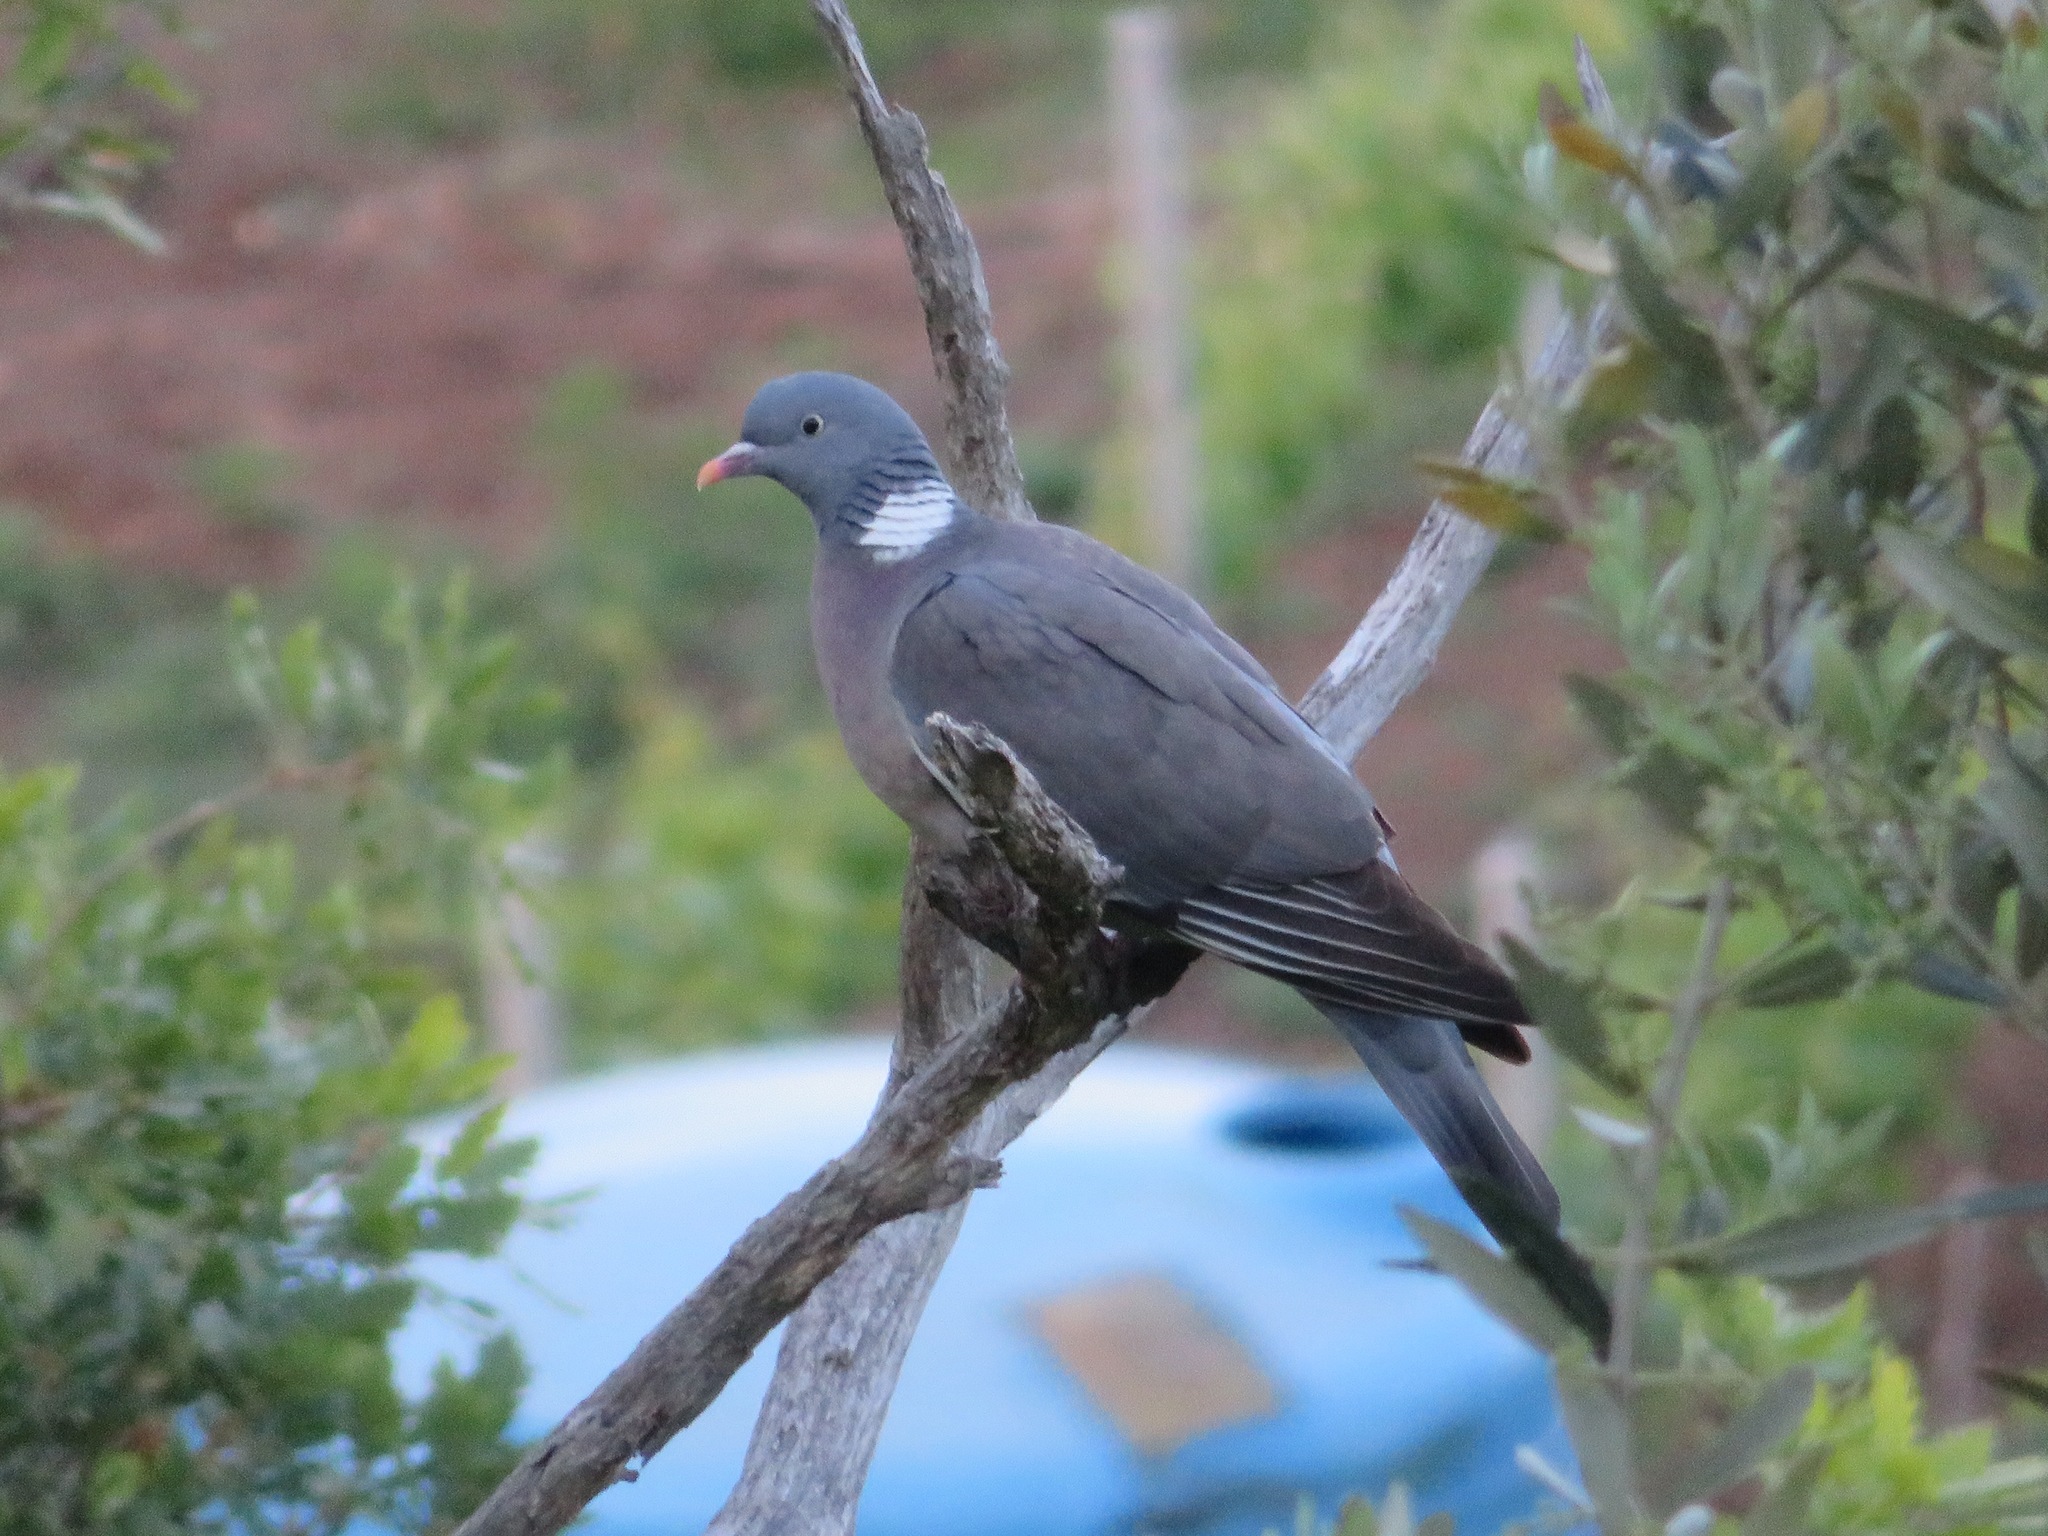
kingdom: Animalia
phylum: Chordata
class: Aves
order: Columbiformes
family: Columbidae
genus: Columba
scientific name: Columba palumbus
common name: Common wood pigeon
